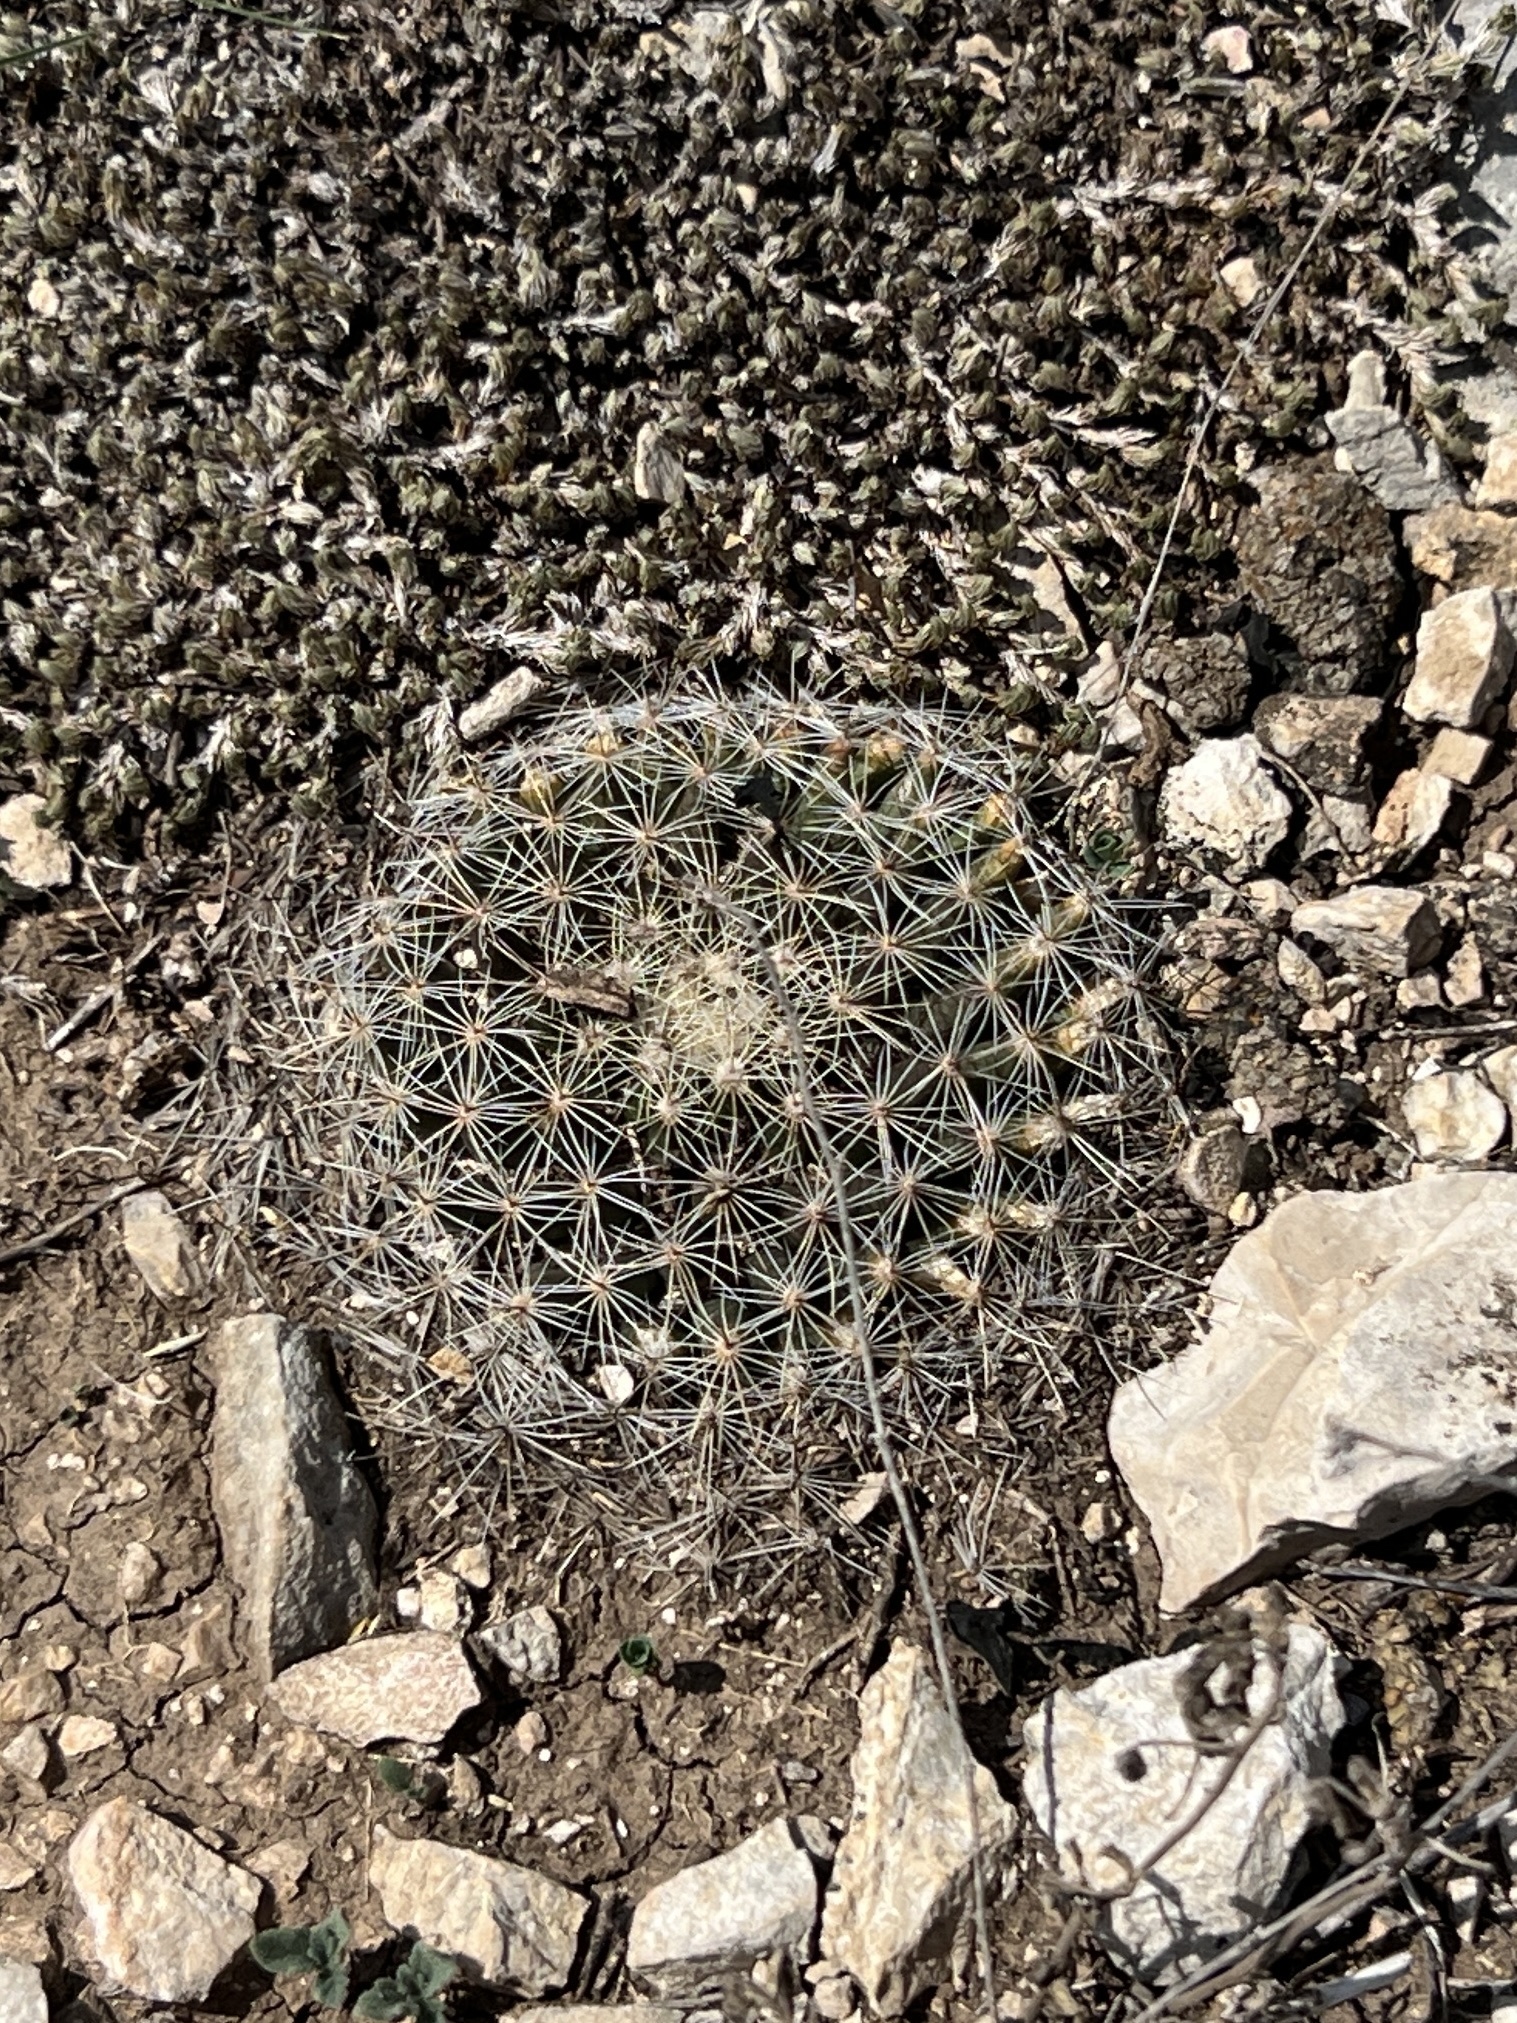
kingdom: Plantae
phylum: Tracheophyta
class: Magnoliopsida
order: Caryophyllales
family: Cactaceae
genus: Mammillaria
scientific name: Mammillaria heyderi
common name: Little nipple cactus
